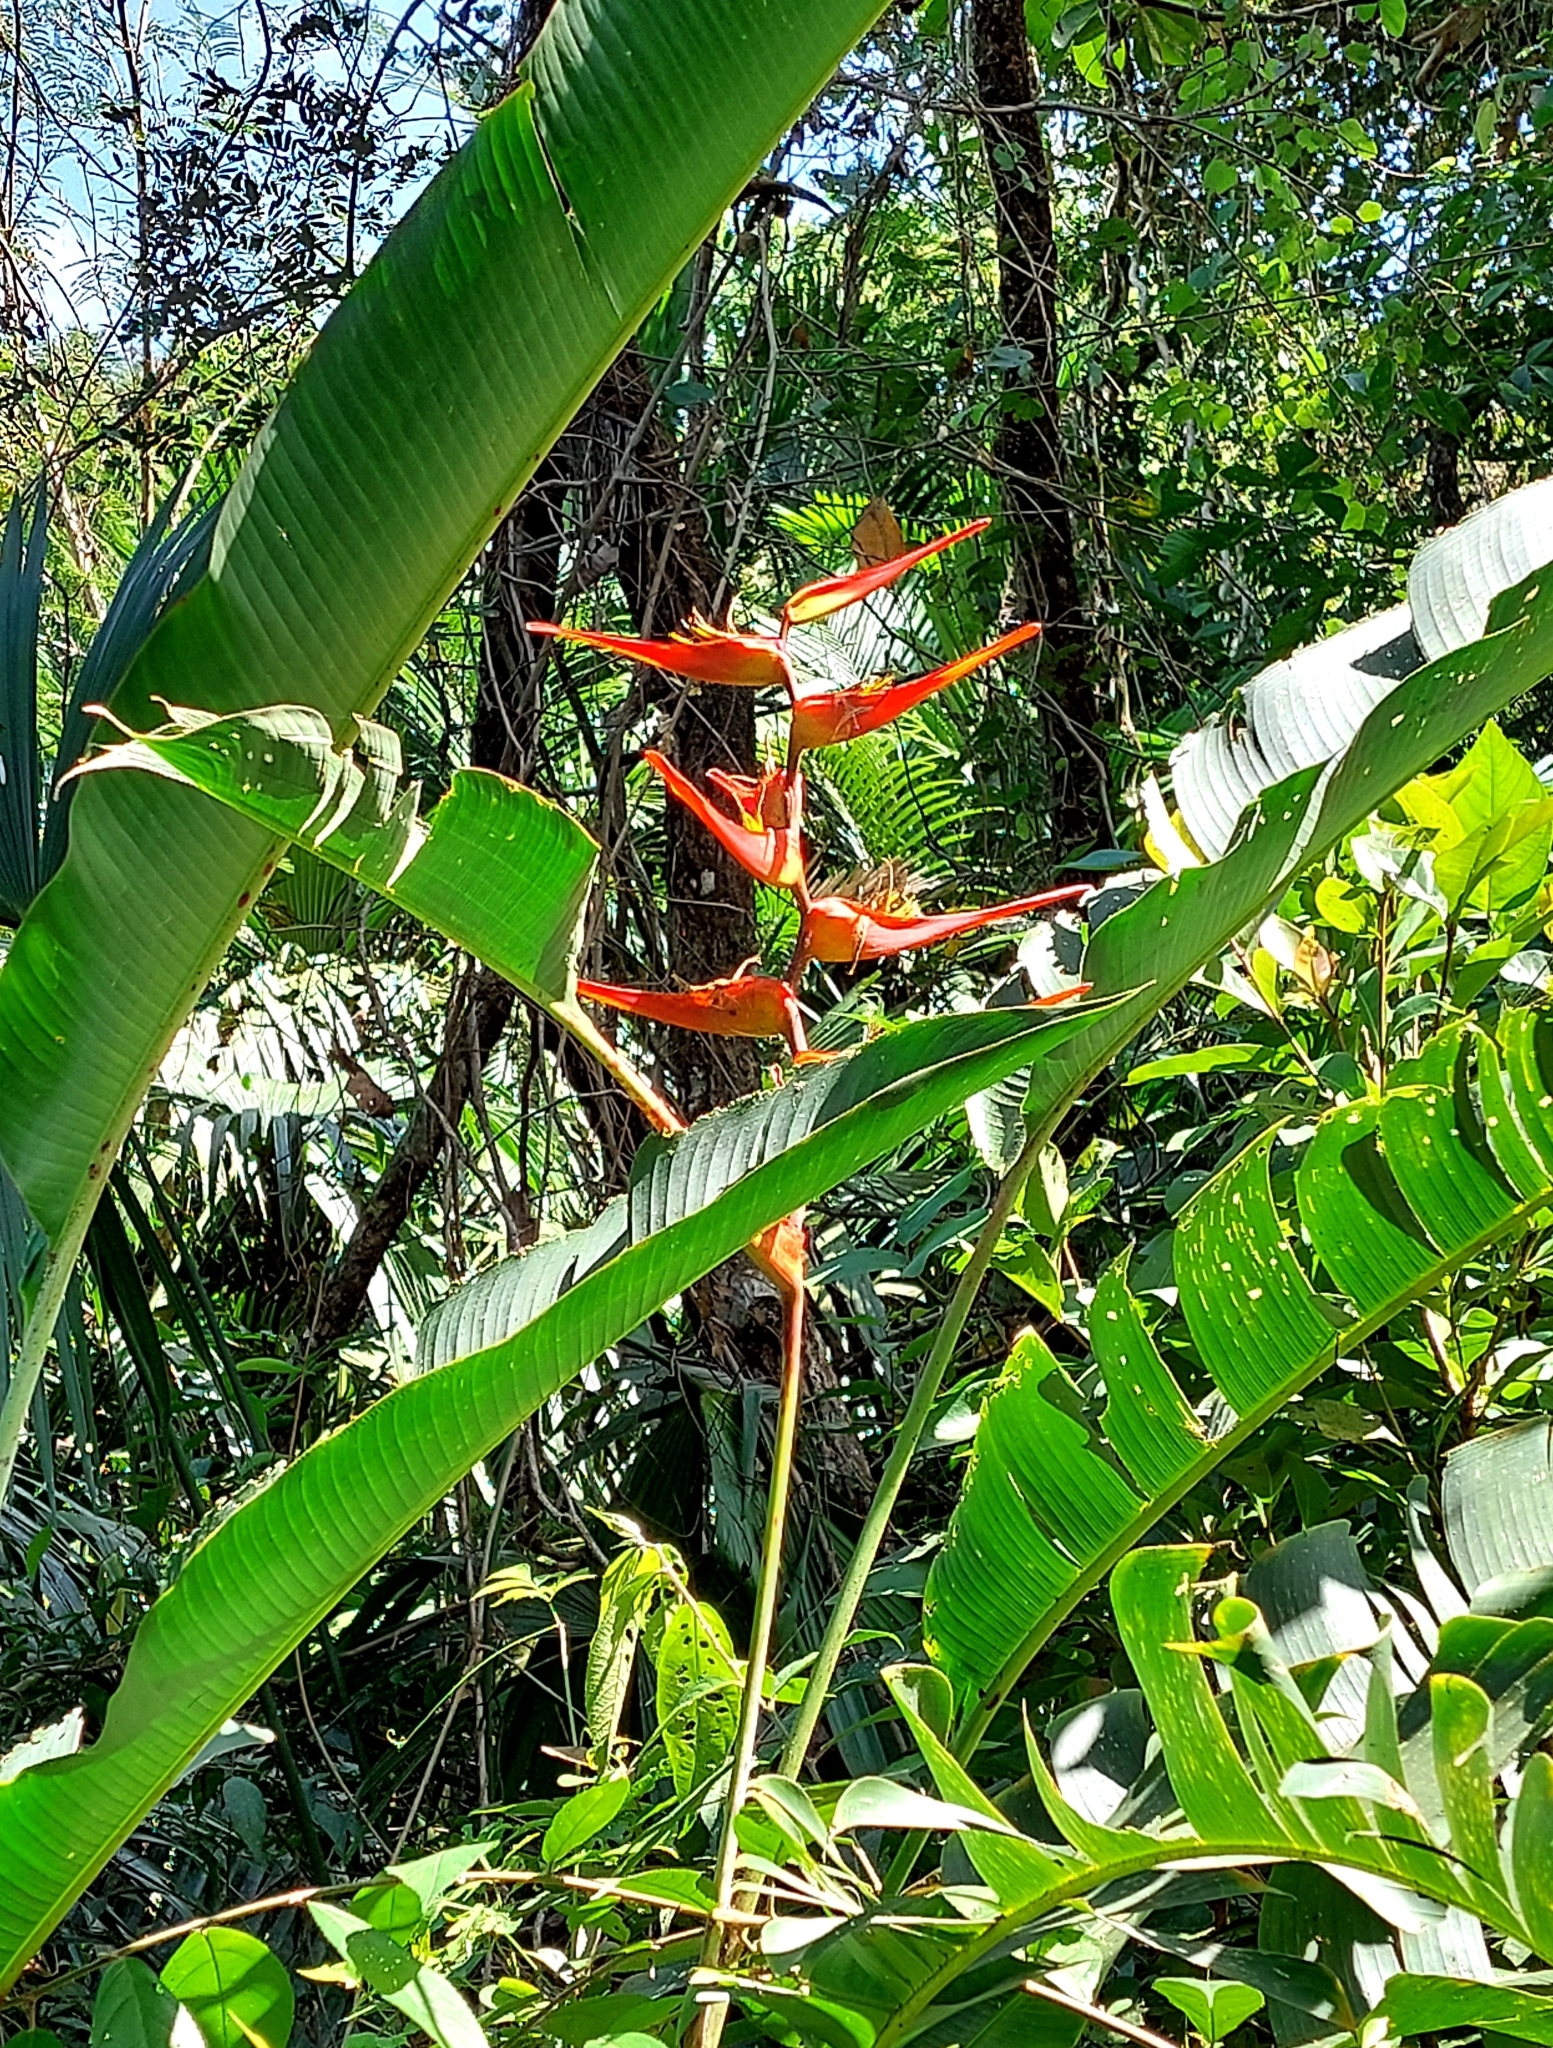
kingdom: Plantae
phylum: Tracheophyta
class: Liliopsida
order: Zingiberales
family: Heliconiaceae
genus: Heliconia
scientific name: Heliconia latispatha
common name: Expanded lobsterclaw
